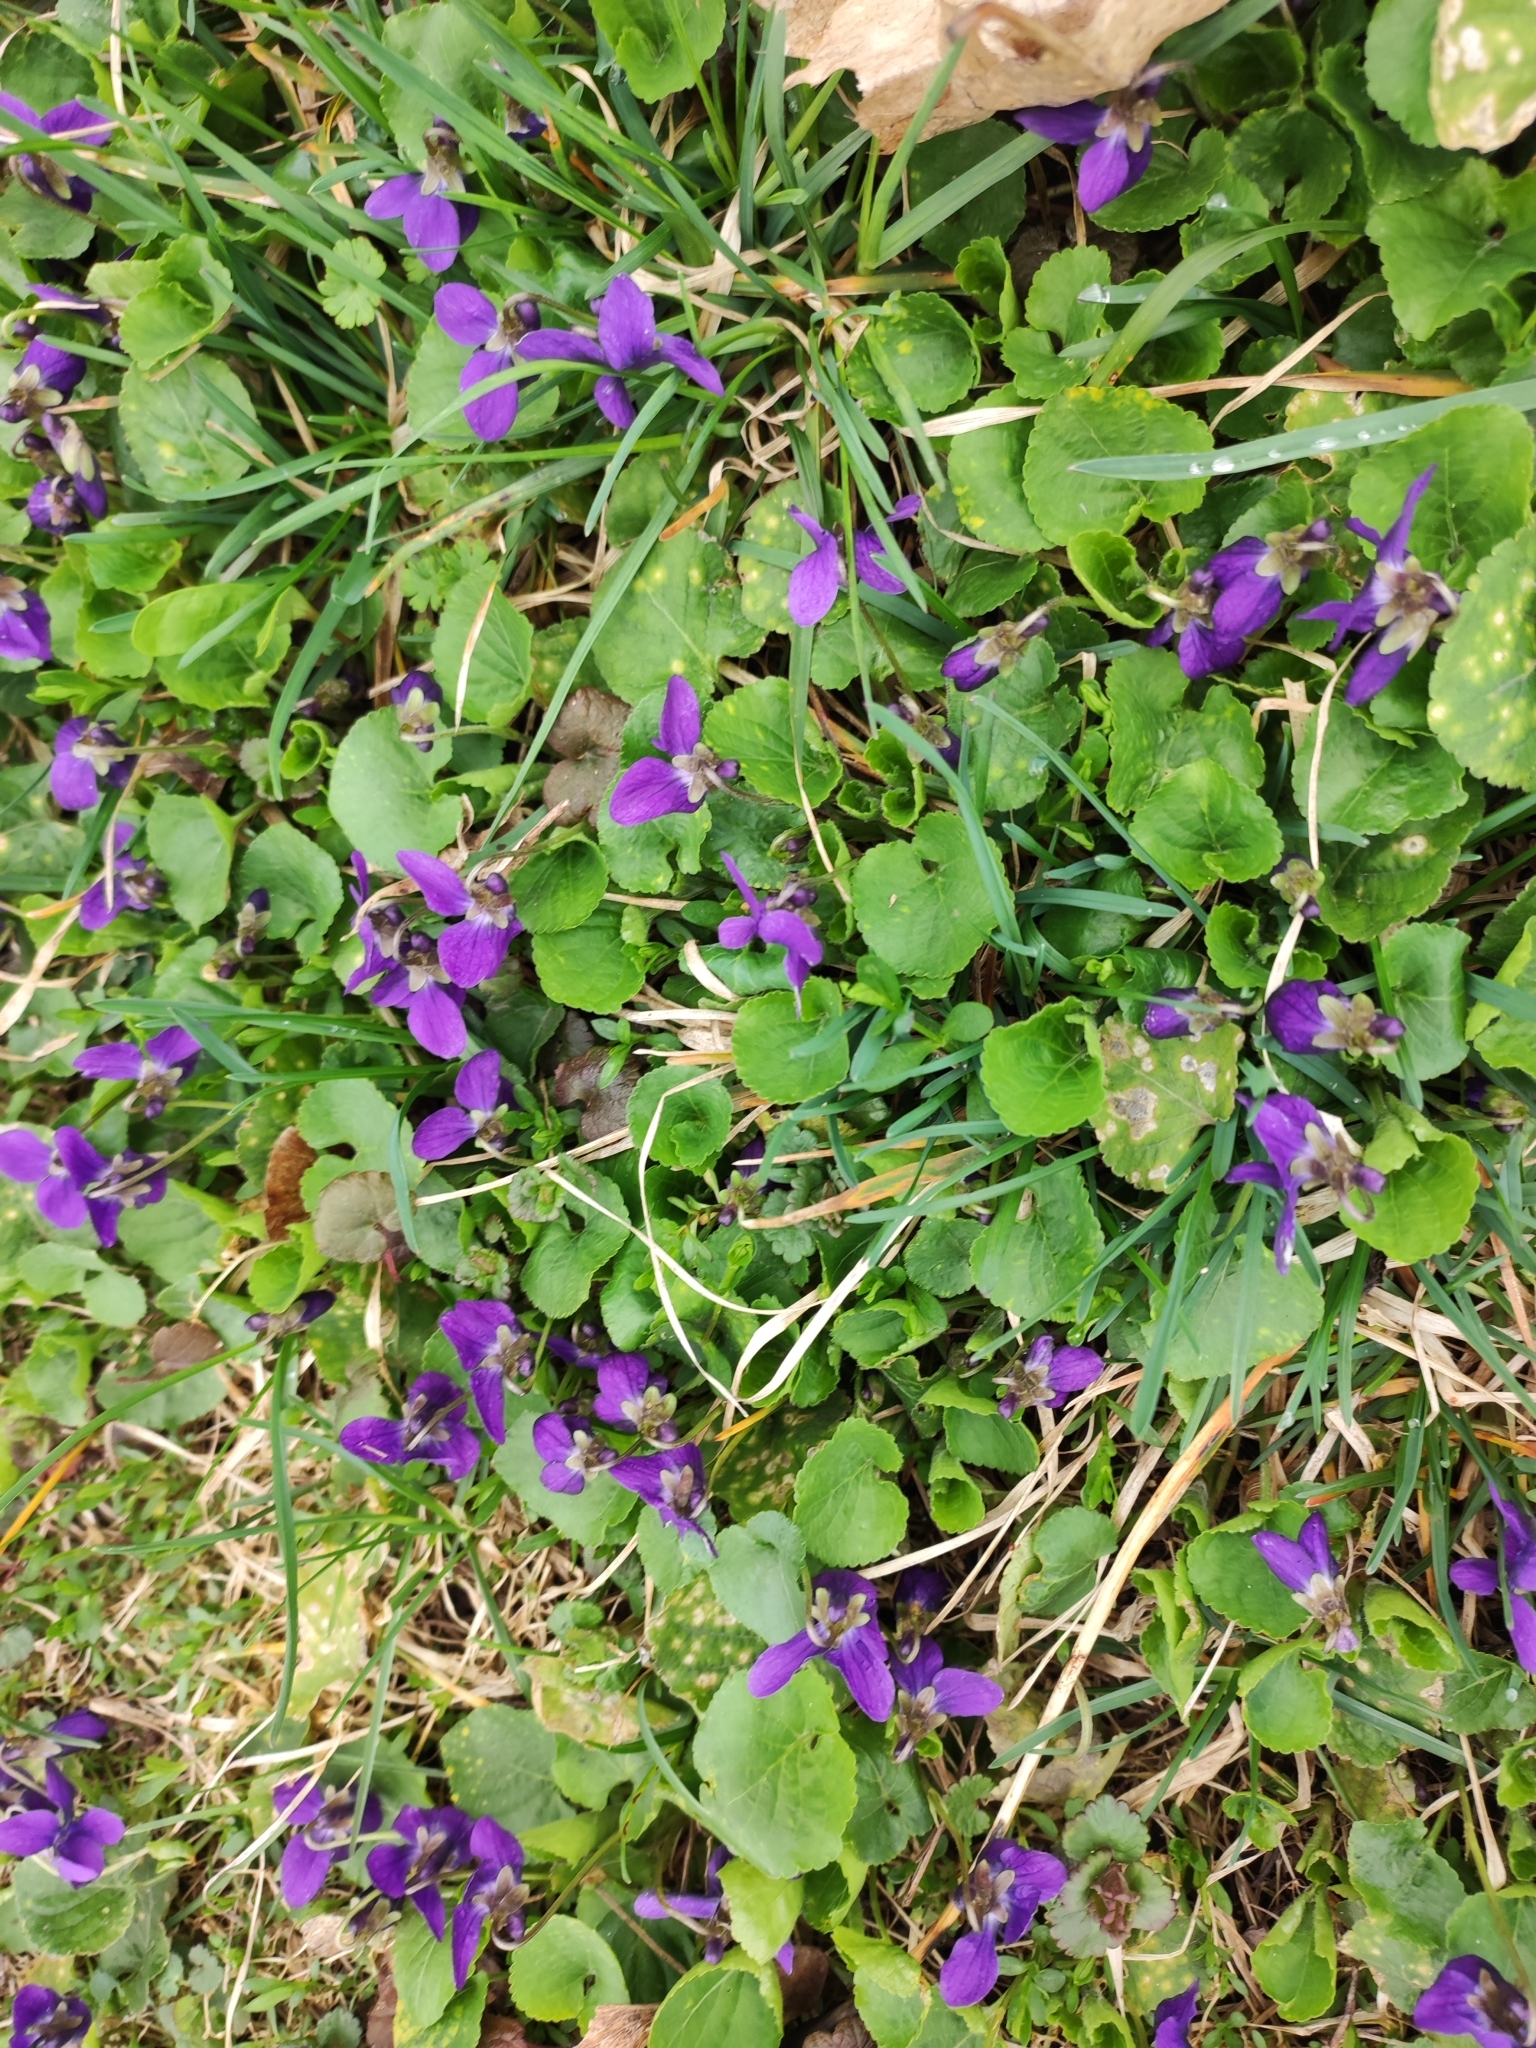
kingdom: Plantae
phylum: Tracheophyta
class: Magnoliopsida
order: Malpighiales
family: Violaceae
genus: Viola
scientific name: Viola odorata
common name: Sweet violet
